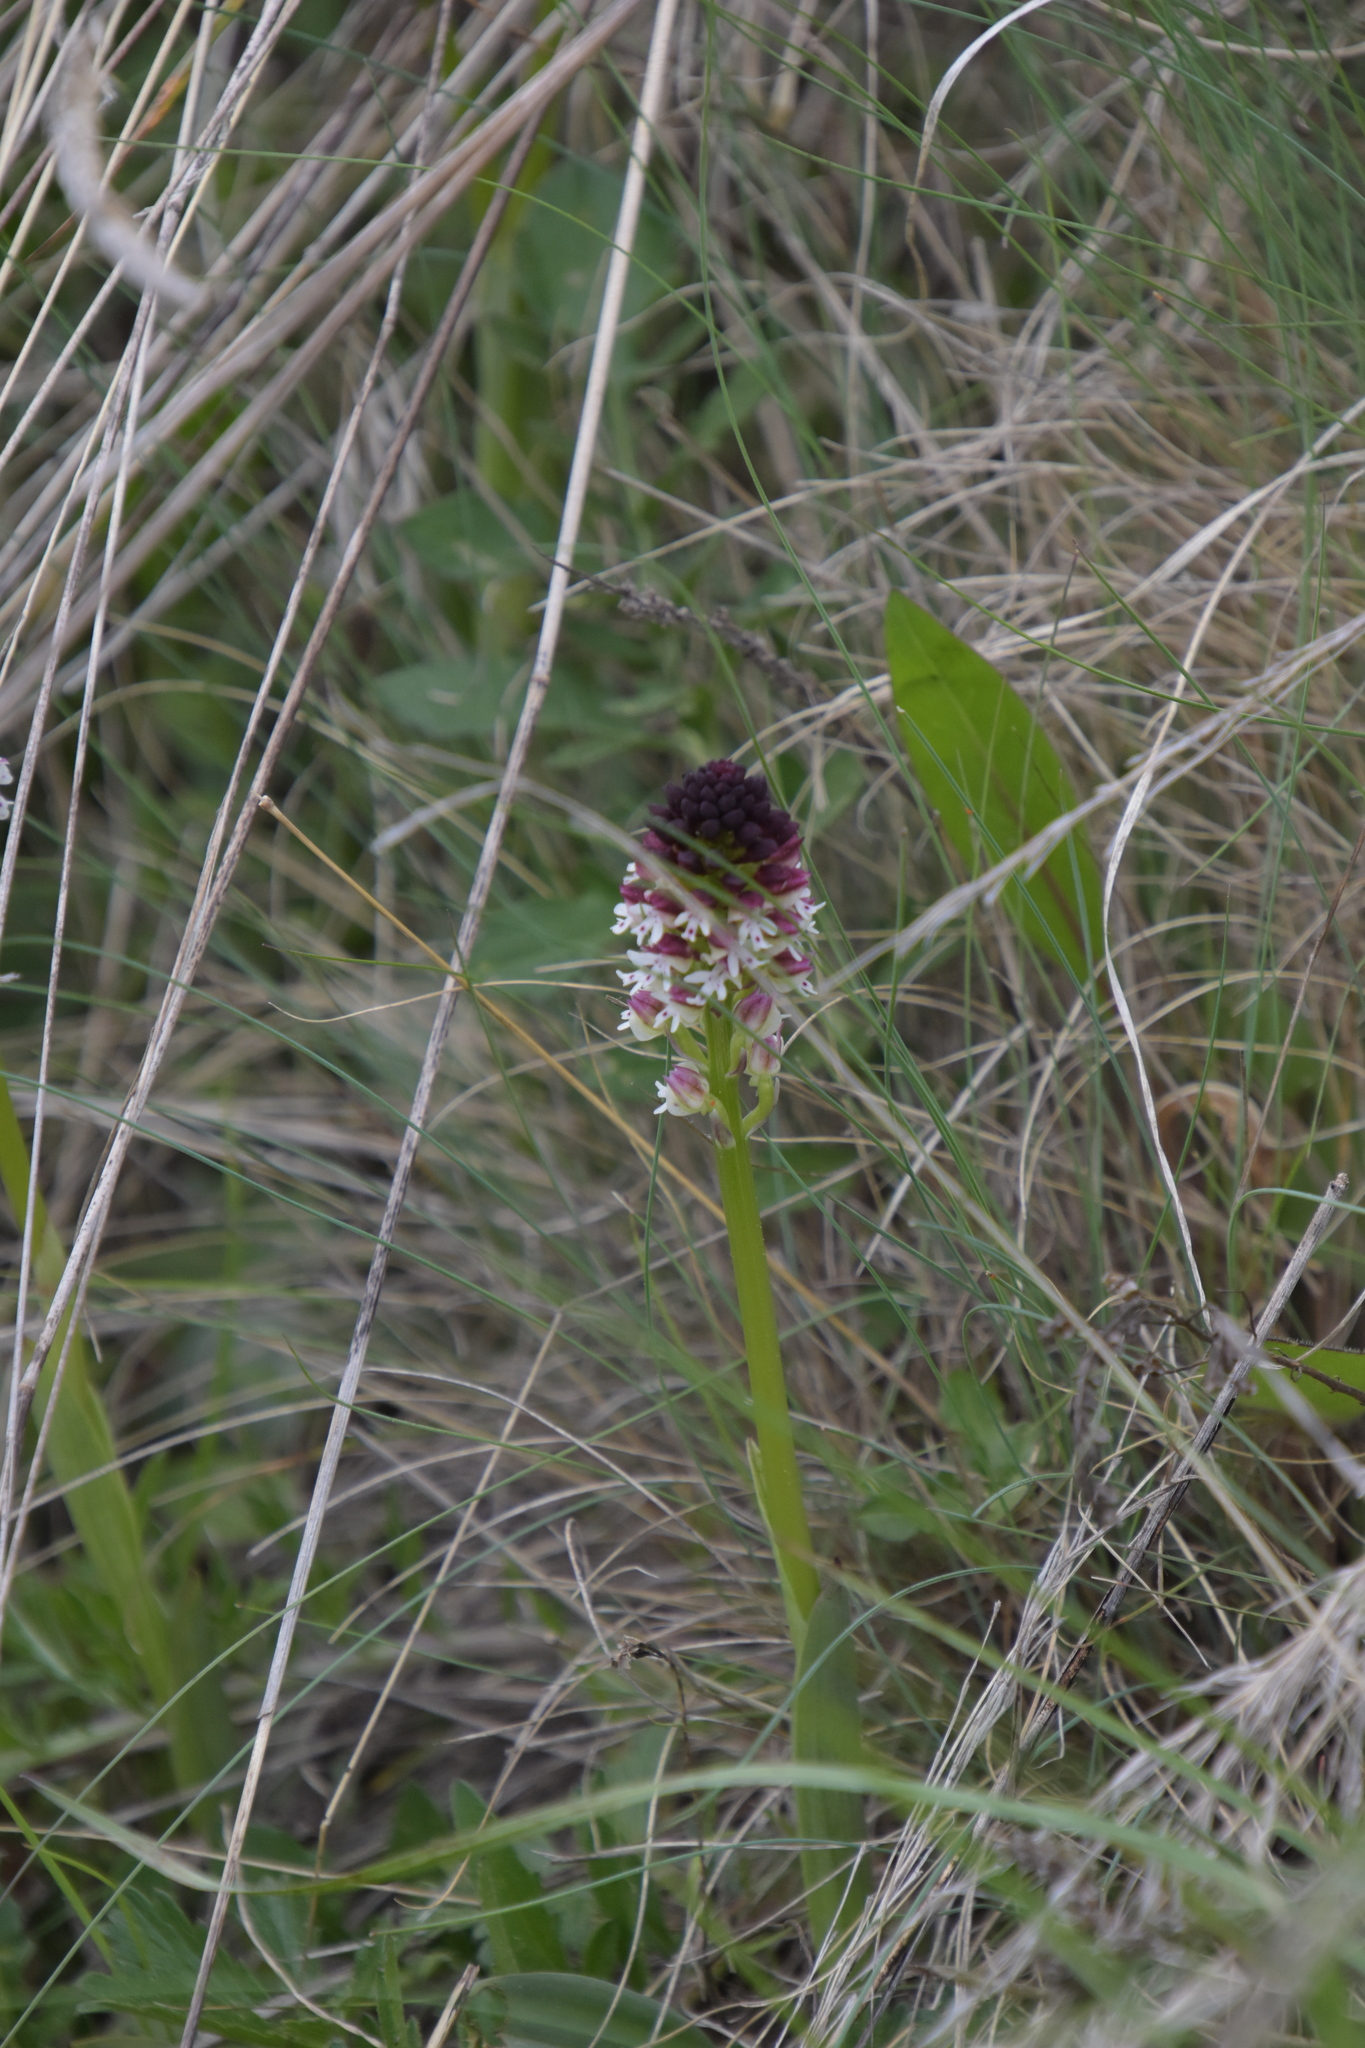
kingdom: Plantae
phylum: Tracheophyta
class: Liliopsida
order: Asparagales
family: Orchidaceae
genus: Neotinea
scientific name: Neotinea ustulata
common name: Burnt orchid
